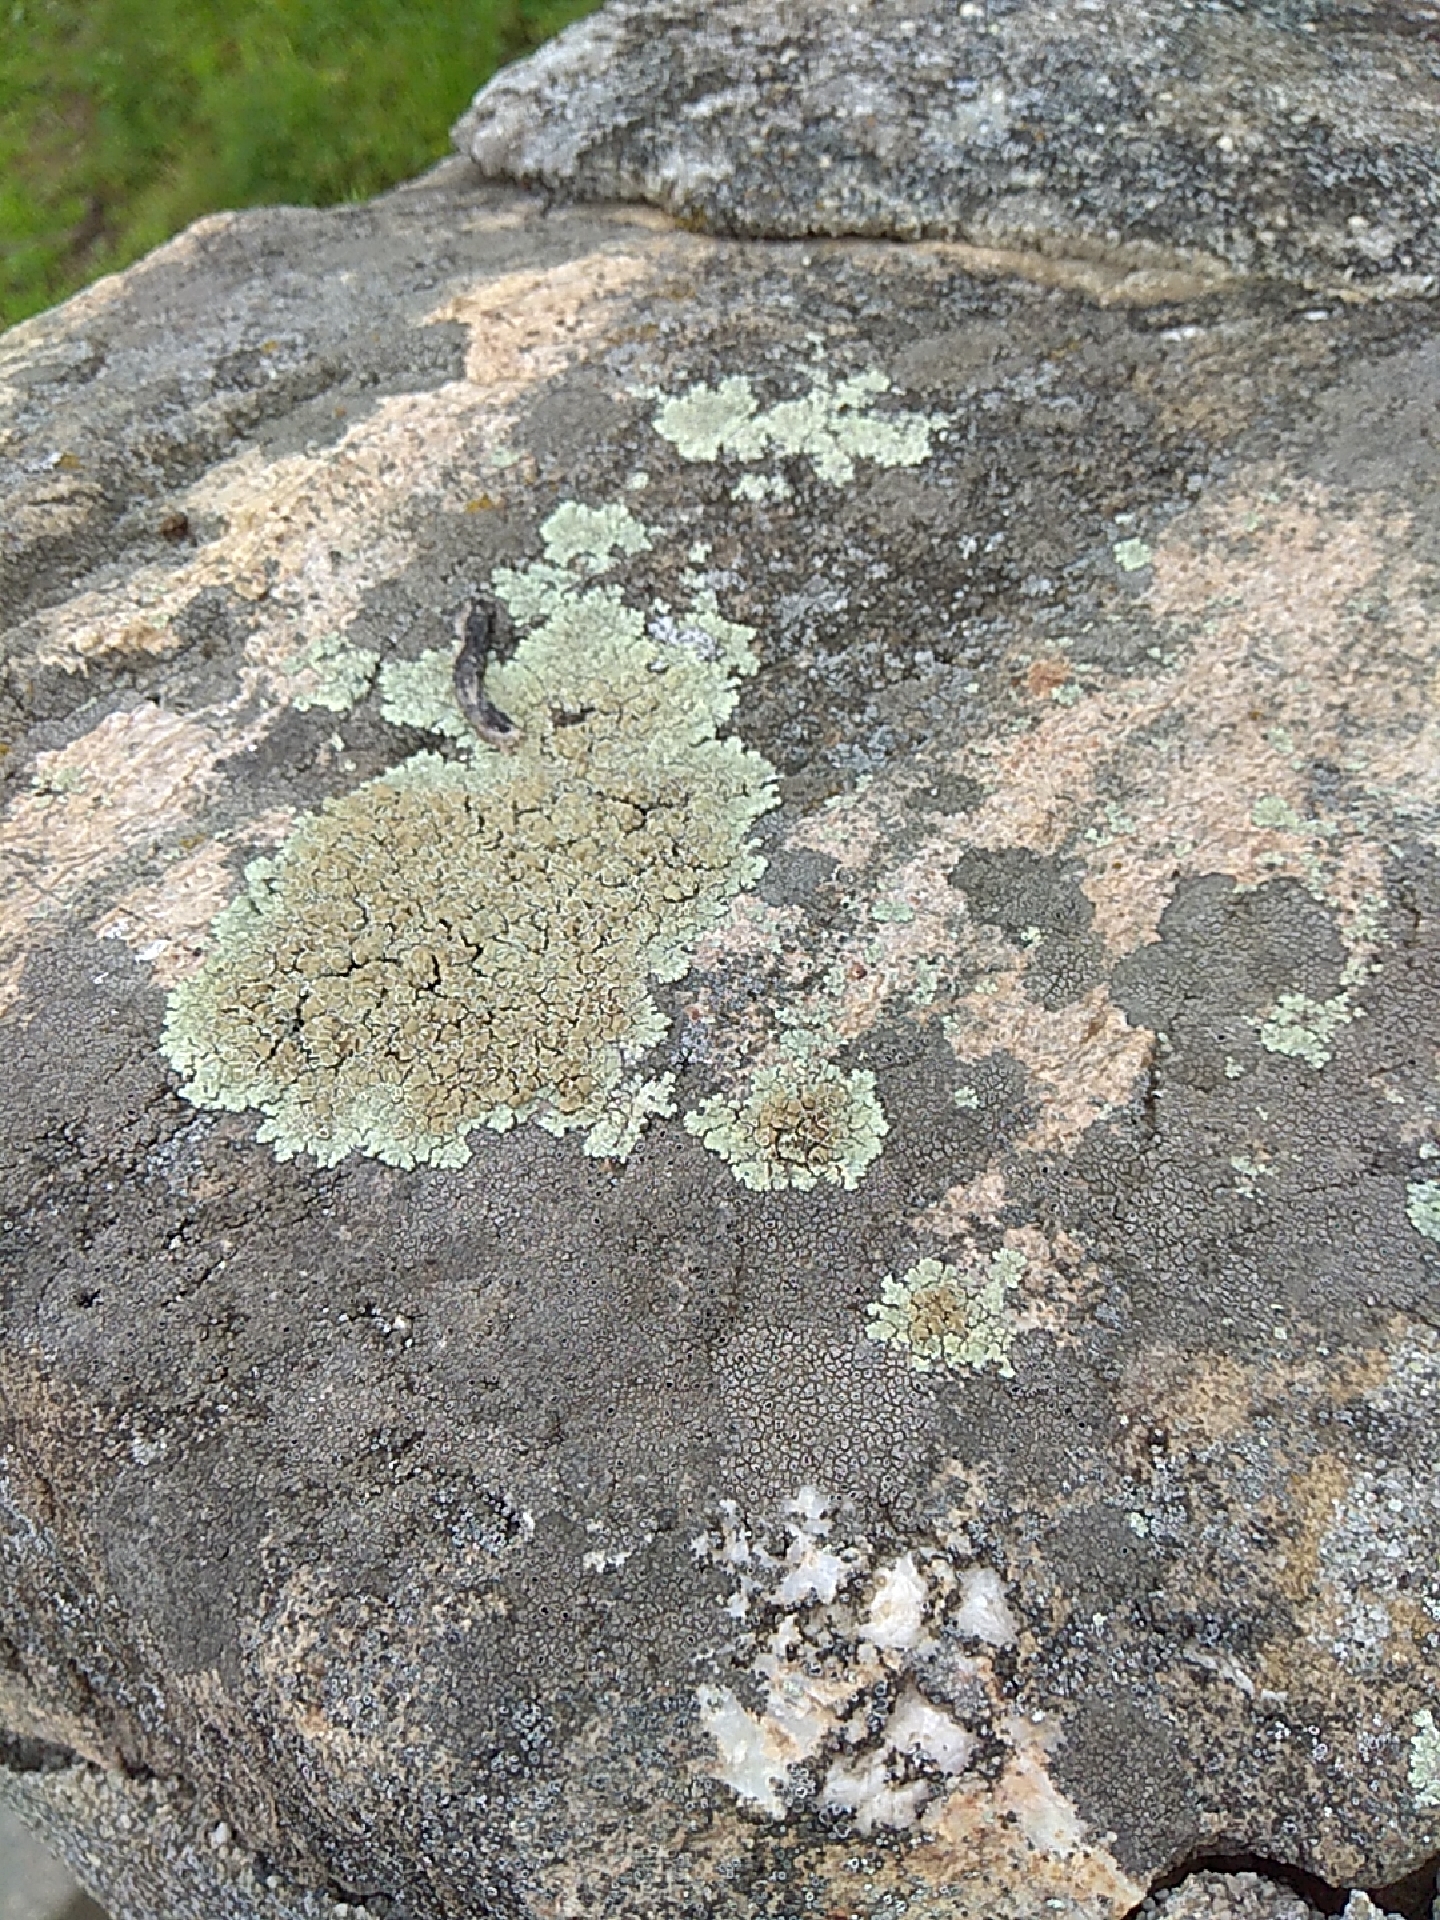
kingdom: Fungi
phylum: Ascomycota
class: Lecanoromycetes
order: Lecanorales
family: Lecanoraceae
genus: Protoparmeliopsis
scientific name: Protoparmeliopsis muralis
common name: Stonewall rim lichen
